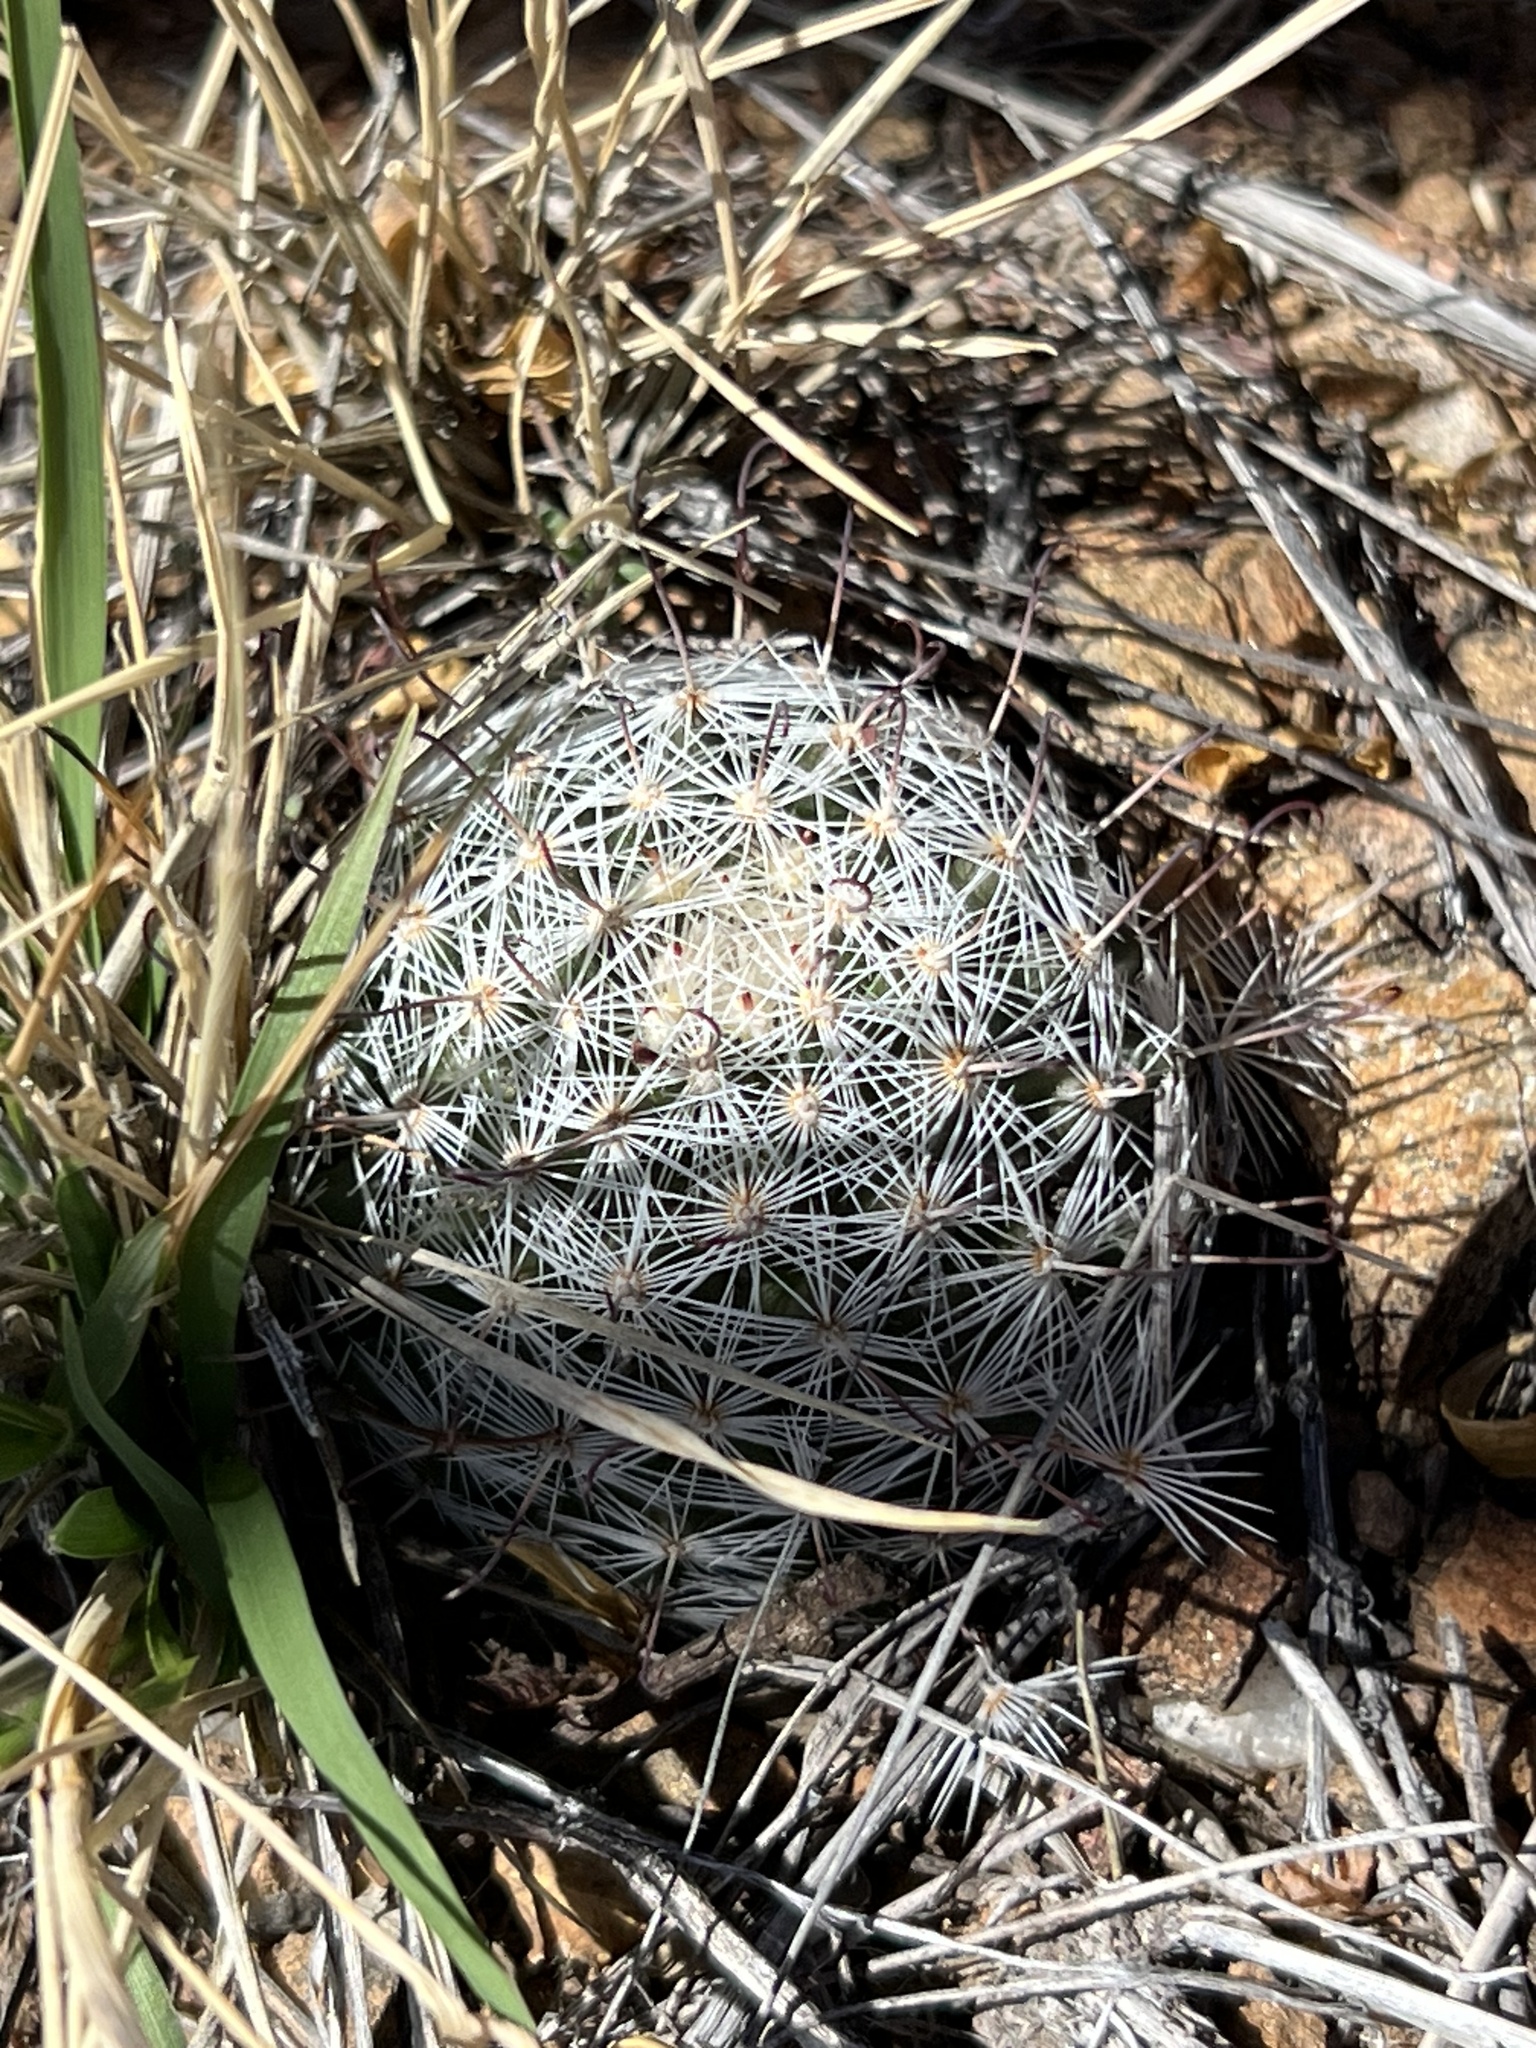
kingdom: Plantae
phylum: Tracheophyta
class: Magnoliopsida
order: Caryophyllales
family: Cactaceae
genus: Cochemiea
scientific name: Cochemiea grahamii
